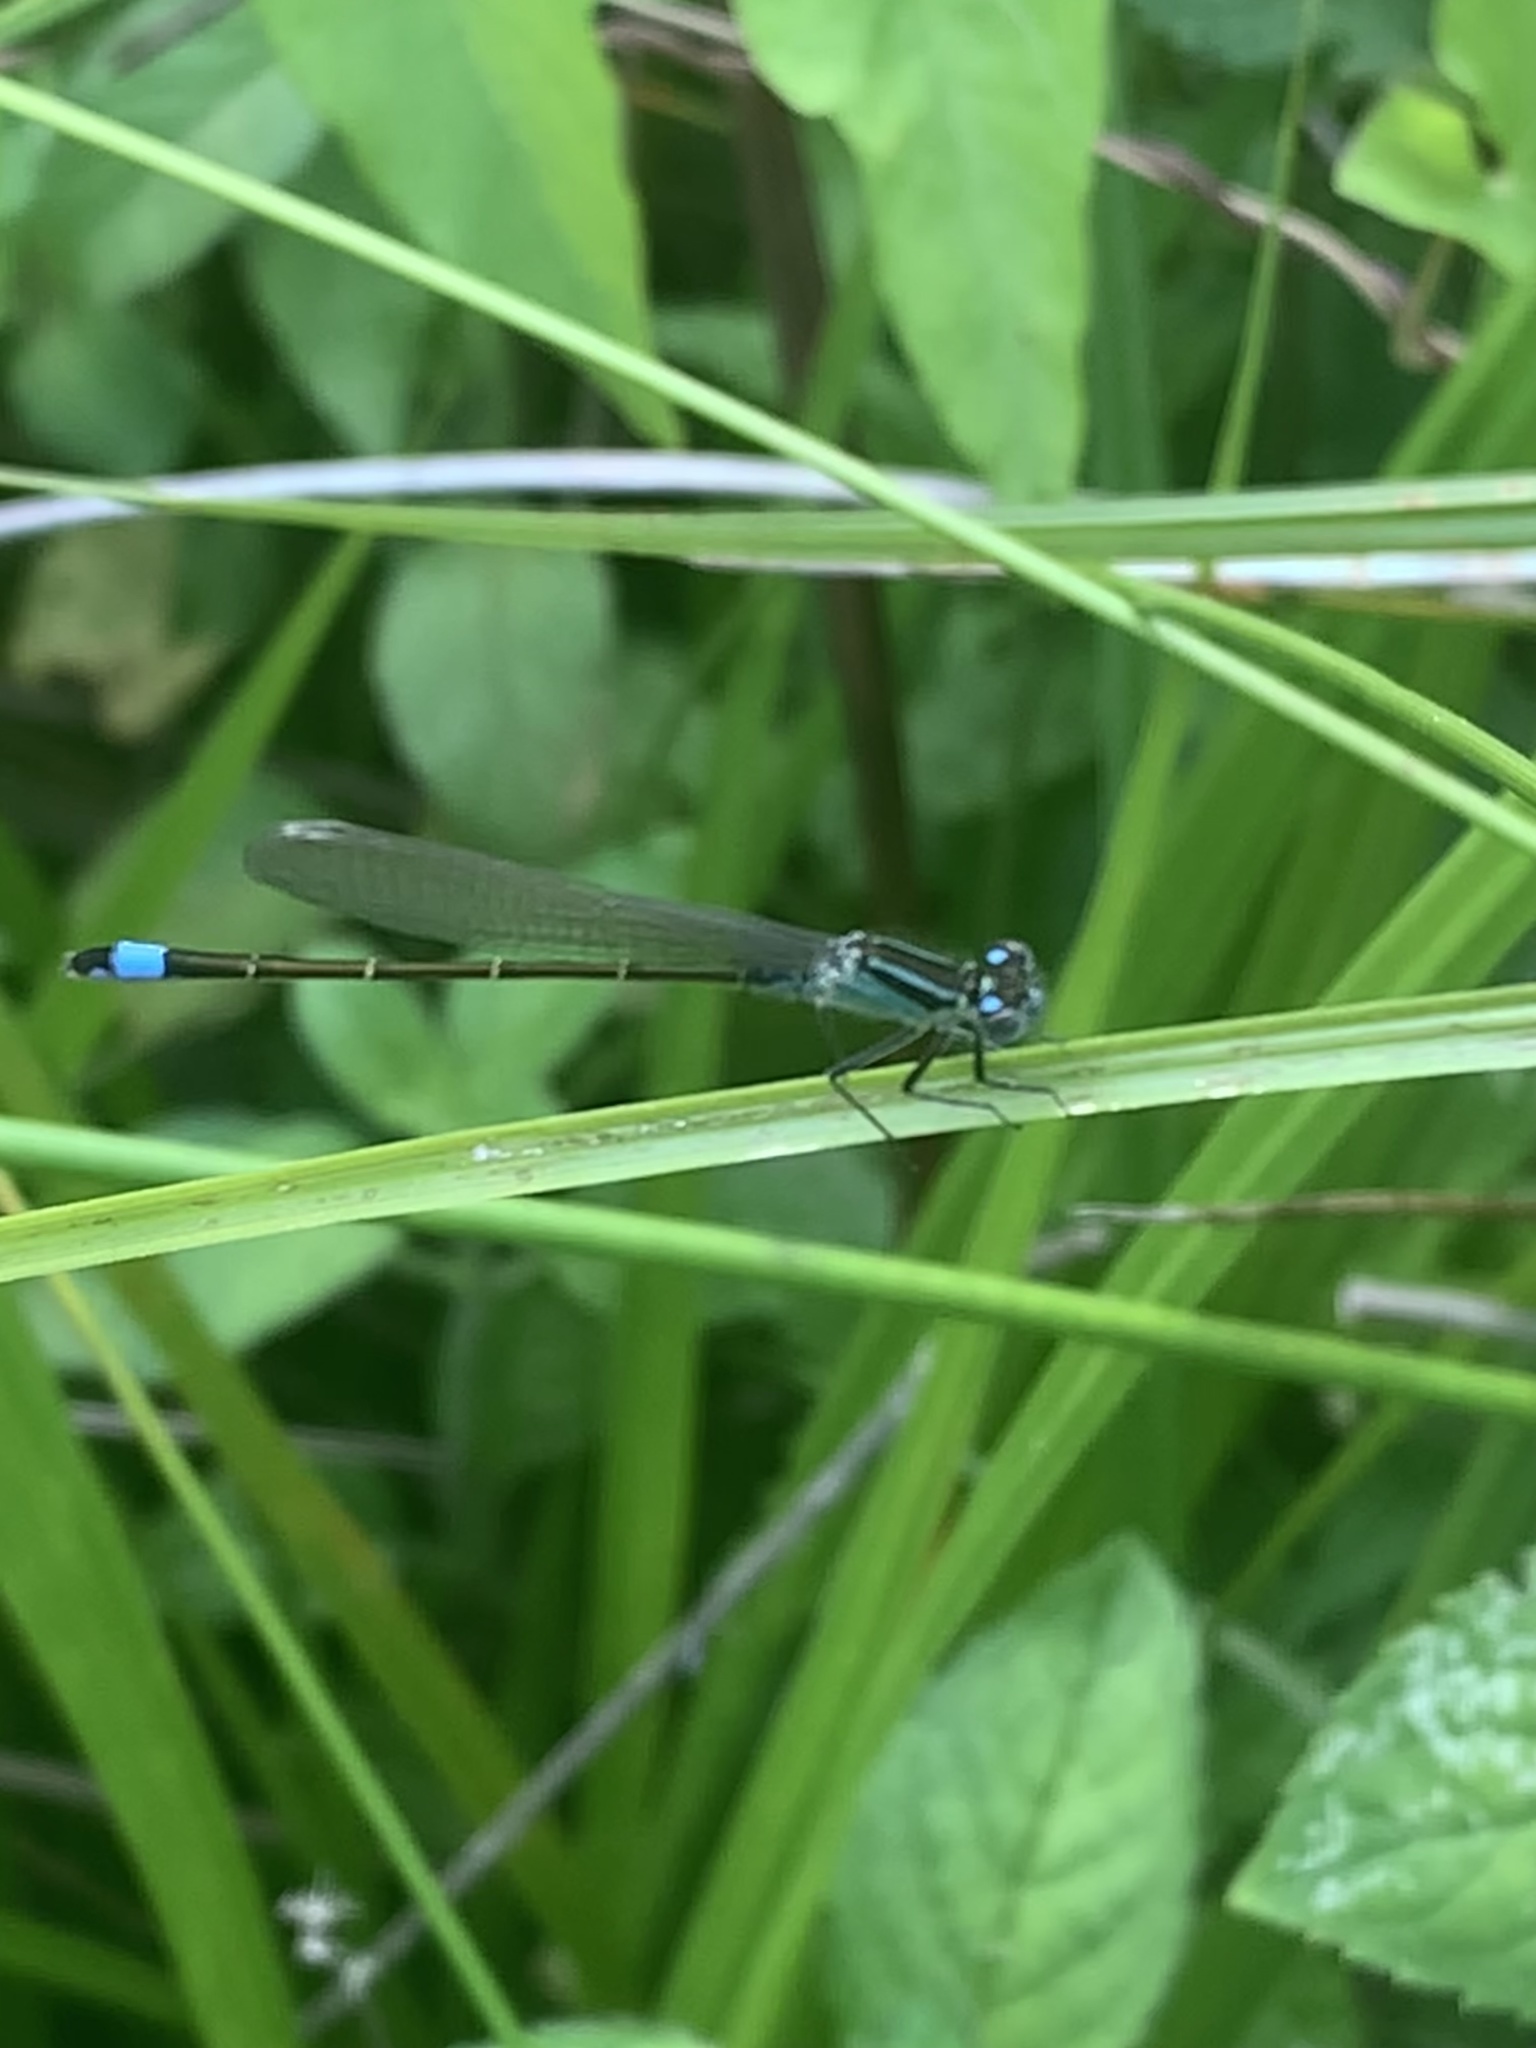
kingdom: Animalia
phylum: Arthropoda
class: Insecta
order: Odonata
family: Coenagrionidae
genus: Ischnura
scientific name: Ischnura elegans
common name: Blue-tailed damselfly
